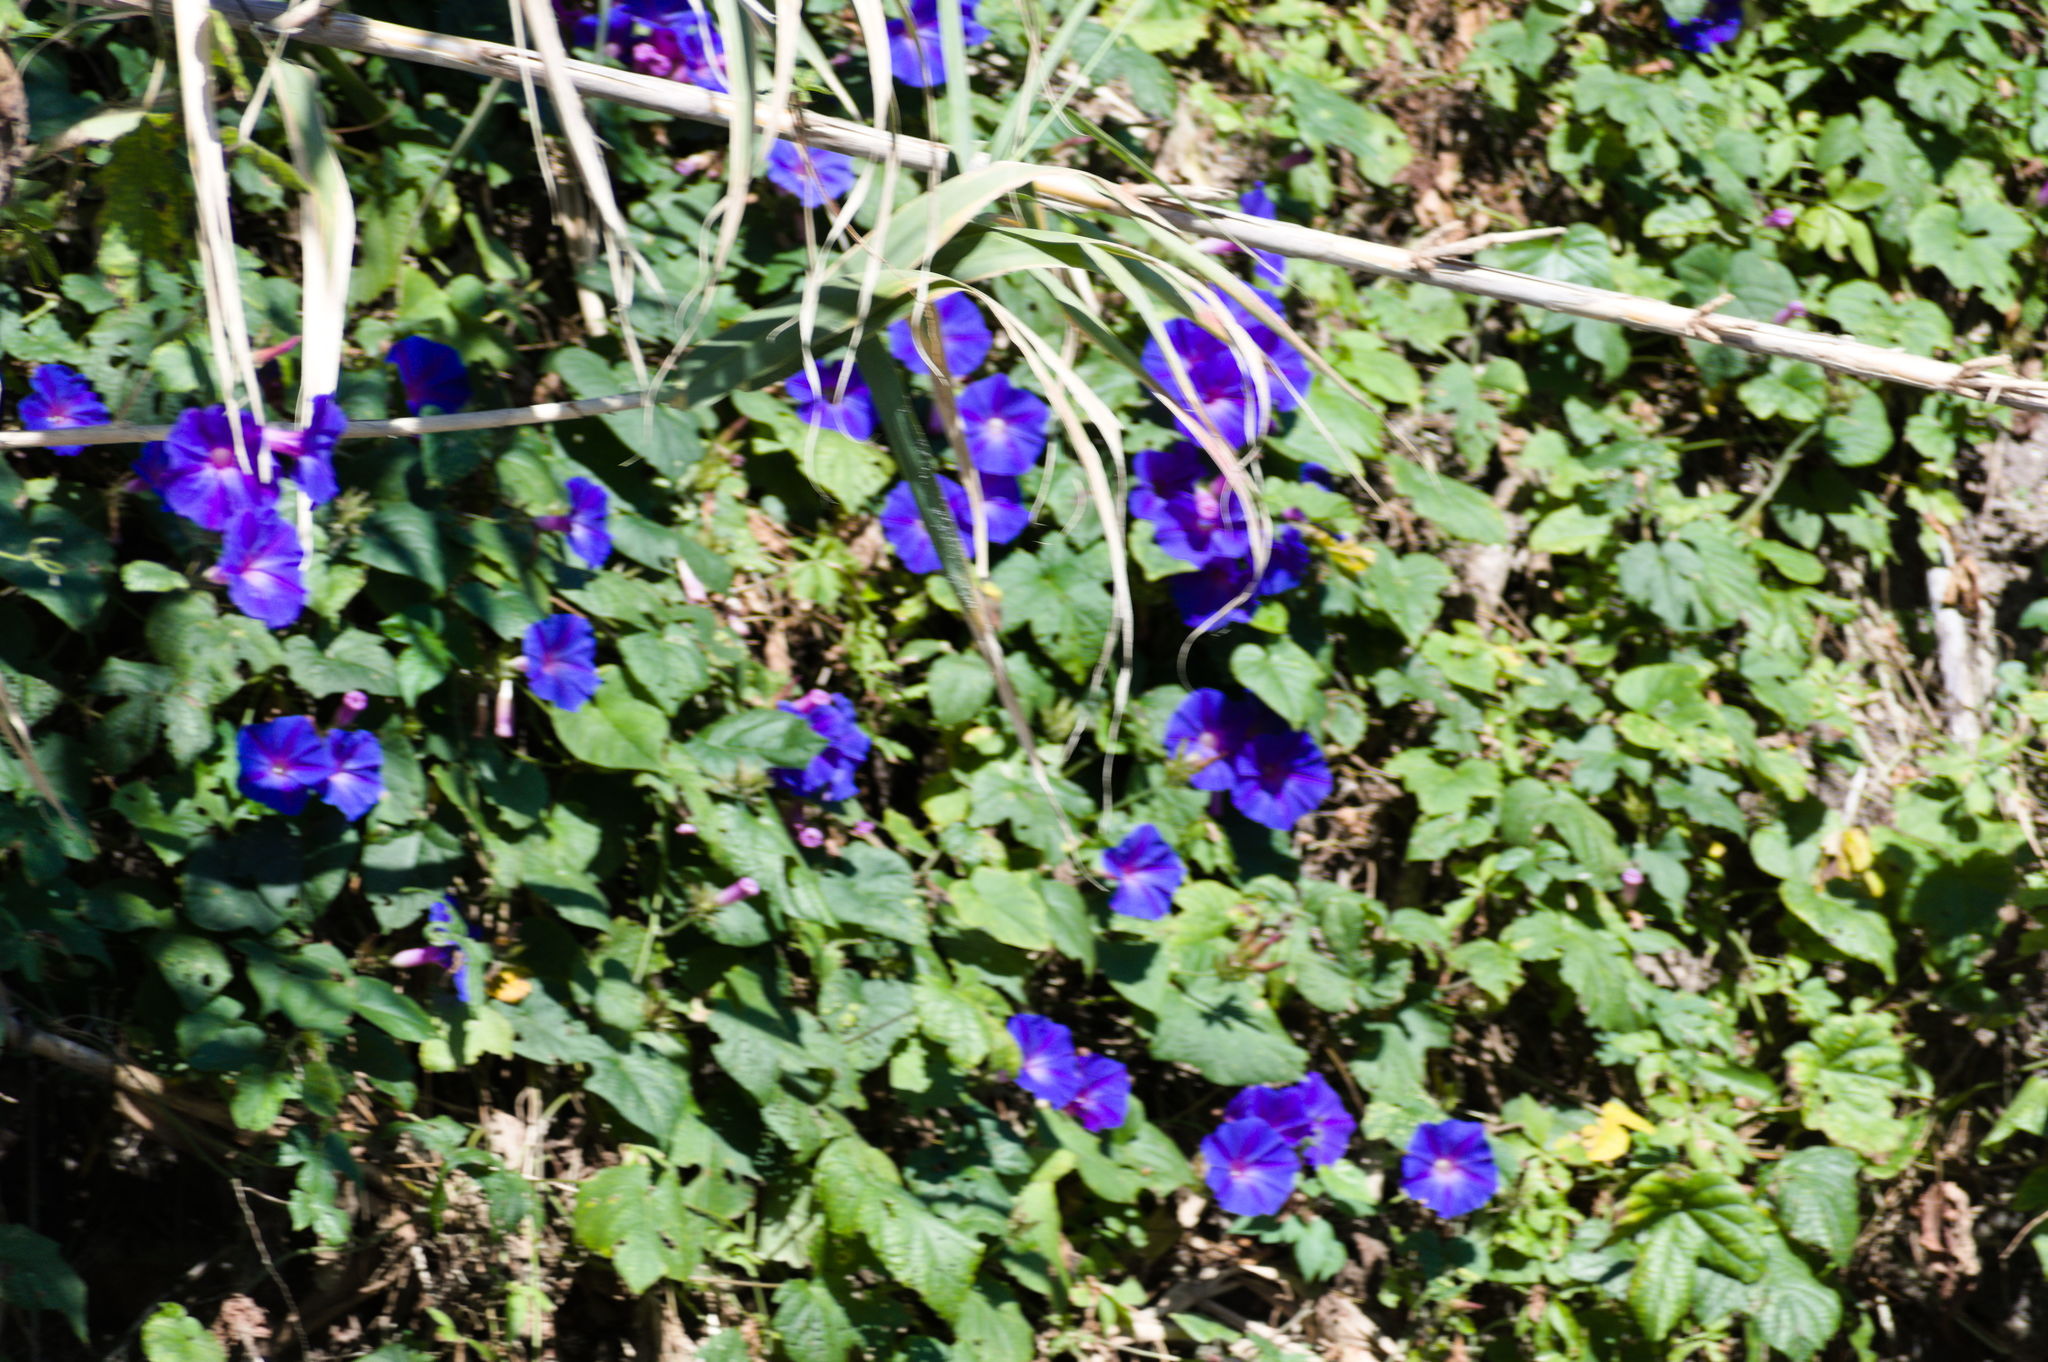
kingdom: Plantae
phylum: Tracheophyta
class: Magnoliopsida
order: Solanales
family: Convolvulaceae
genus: Ipomoea
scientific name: Ipomoea indica
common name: Blue dawnflower
